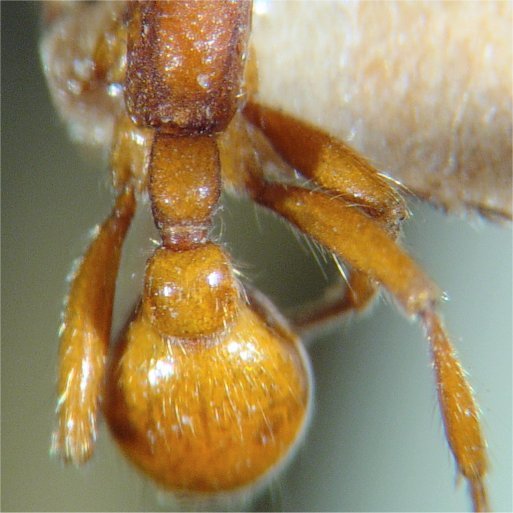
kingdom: Animalia
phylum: Arthropoda
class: Insecta
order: Hymenoptera
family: Formicidae
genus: Neivamyrmex
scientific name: Neivamyrmex californicus
